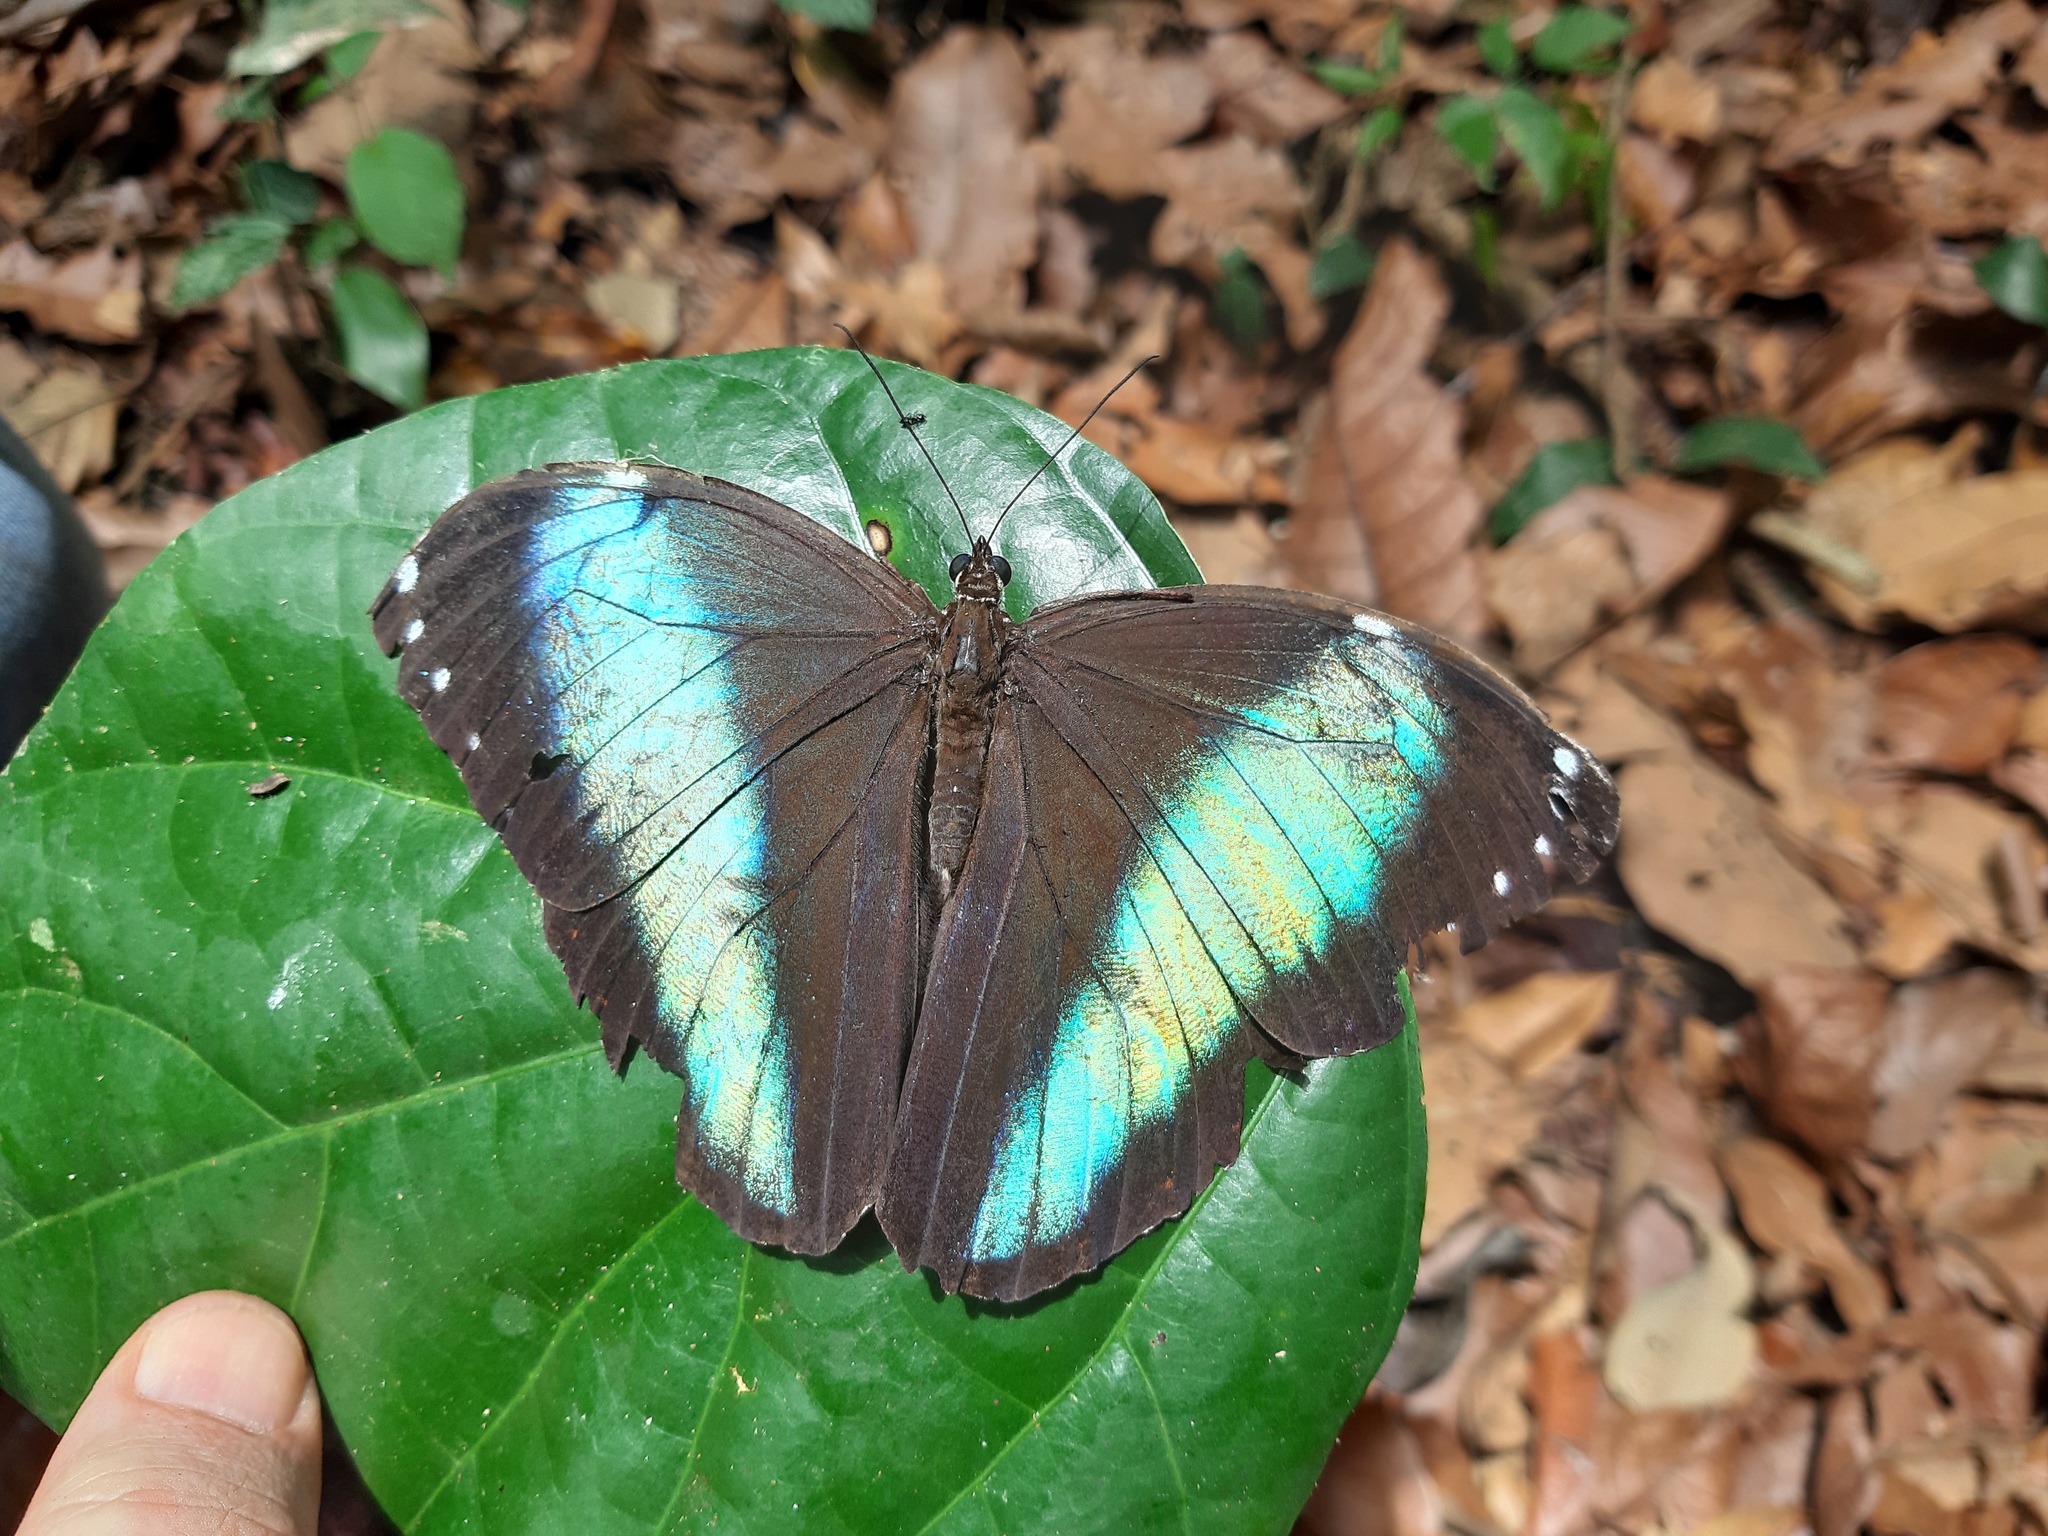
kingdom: Animalia
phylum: Arthropoda
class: Insecta
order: Lepidoptera
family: Nymphalidae
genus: Morpho
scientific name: Morpho helenor
